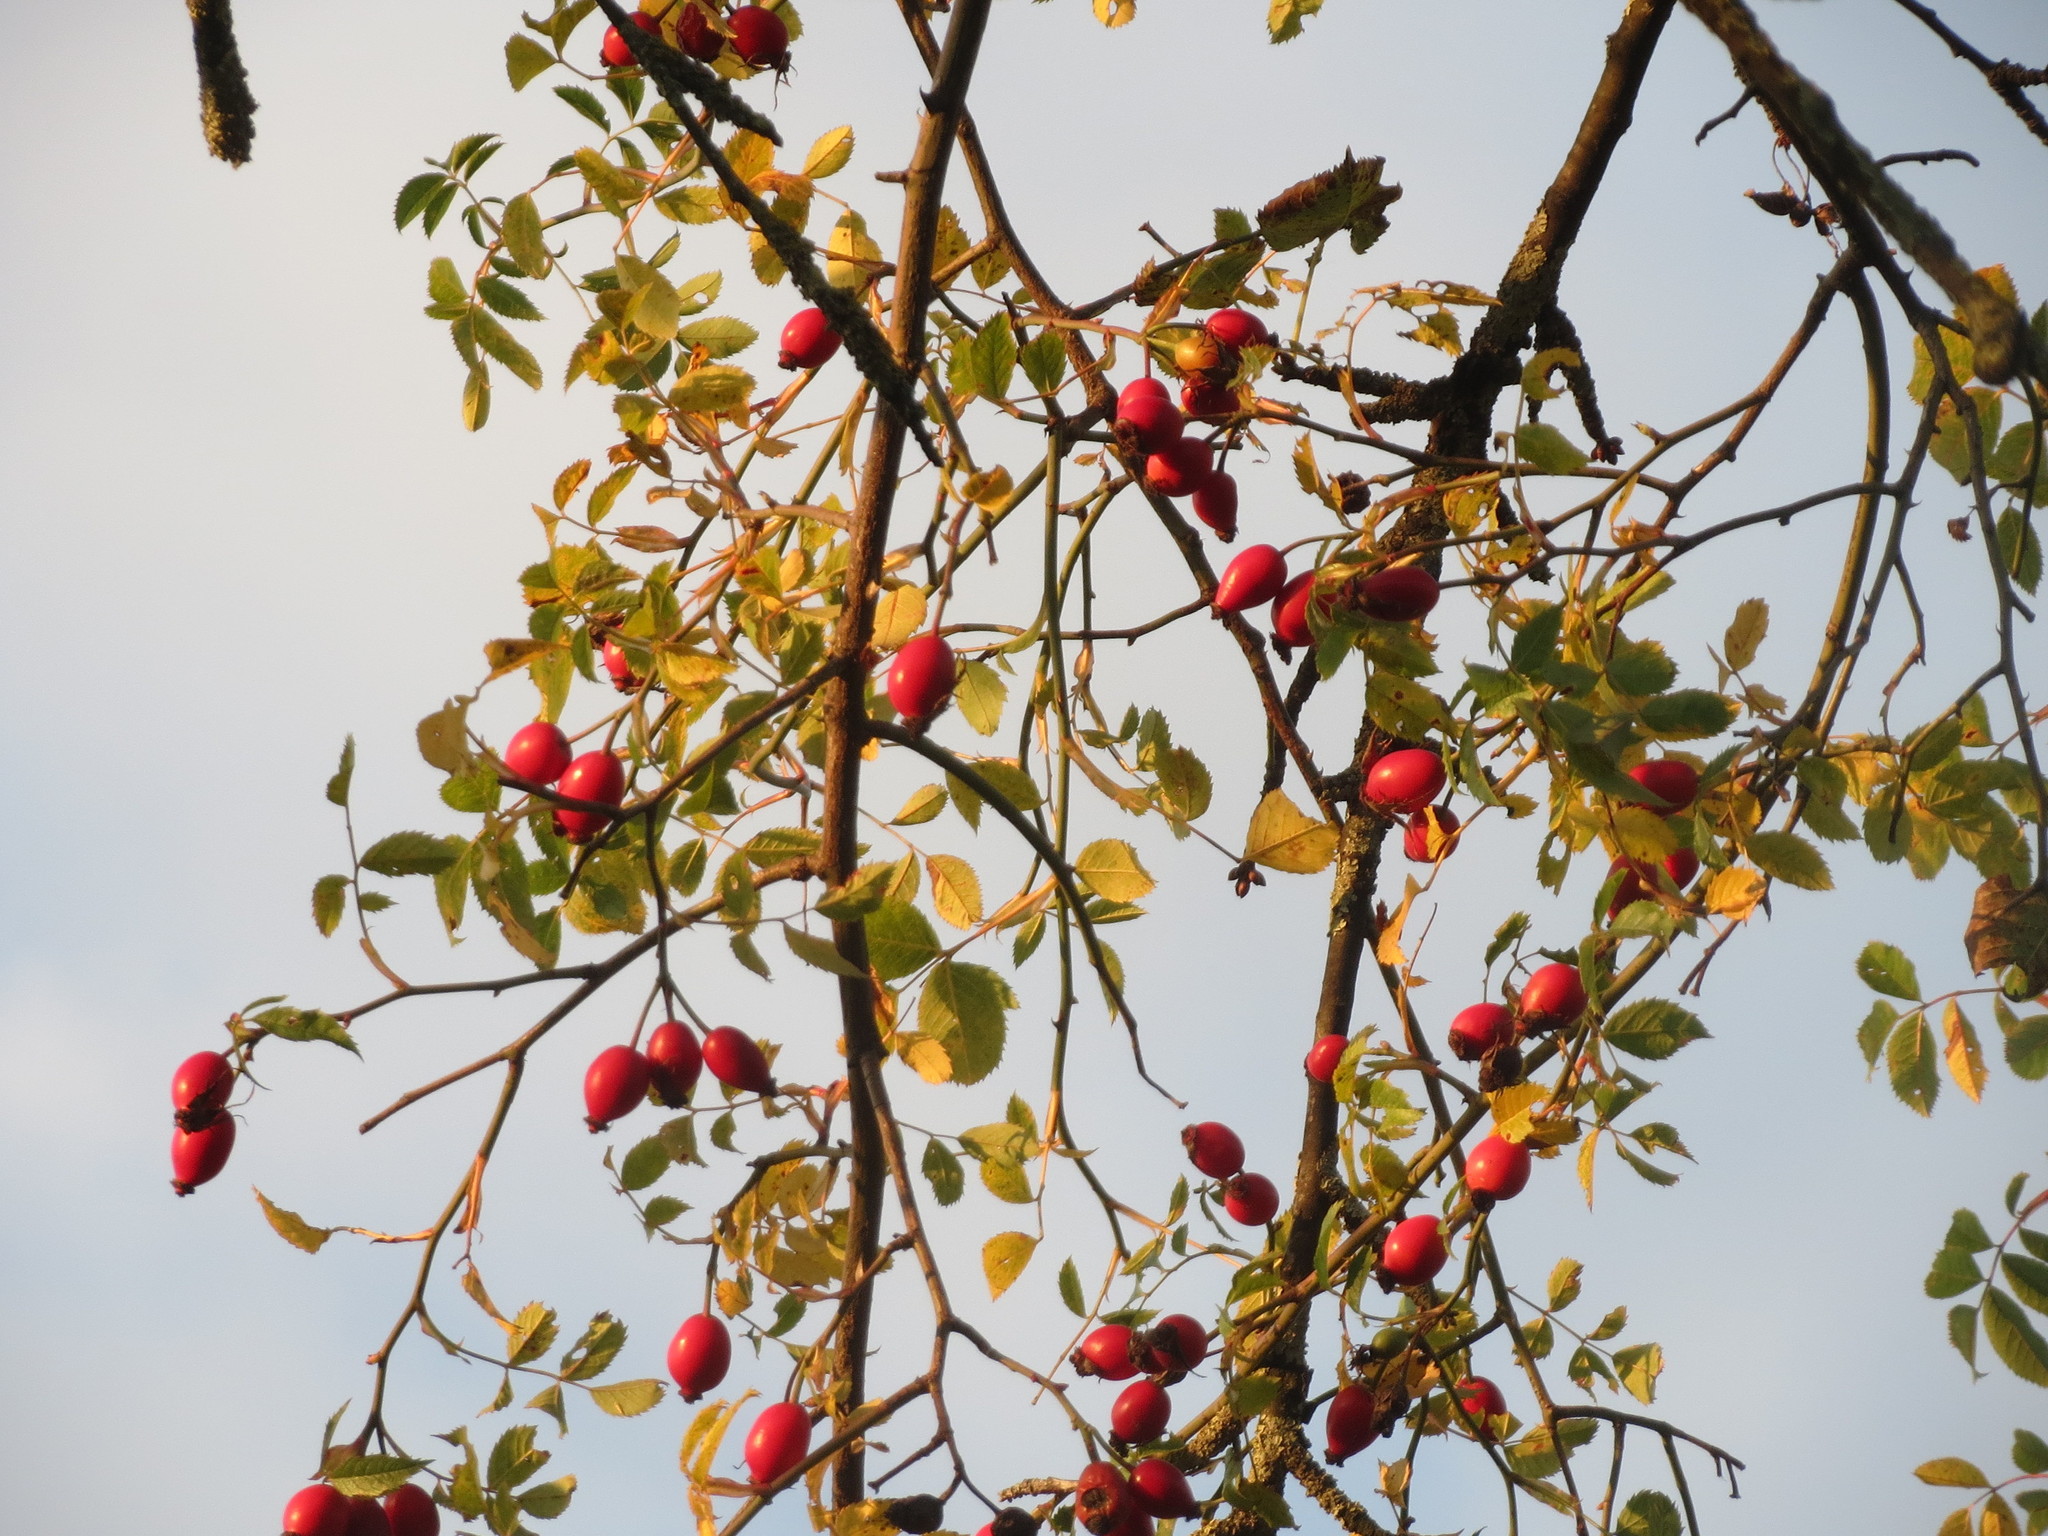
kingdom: Plantae
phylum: Tracheophyta
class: Magnoliopsida
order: Rosales
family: Rosaceae
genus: Rosa
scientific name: Rosa canina
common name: Dog rose
